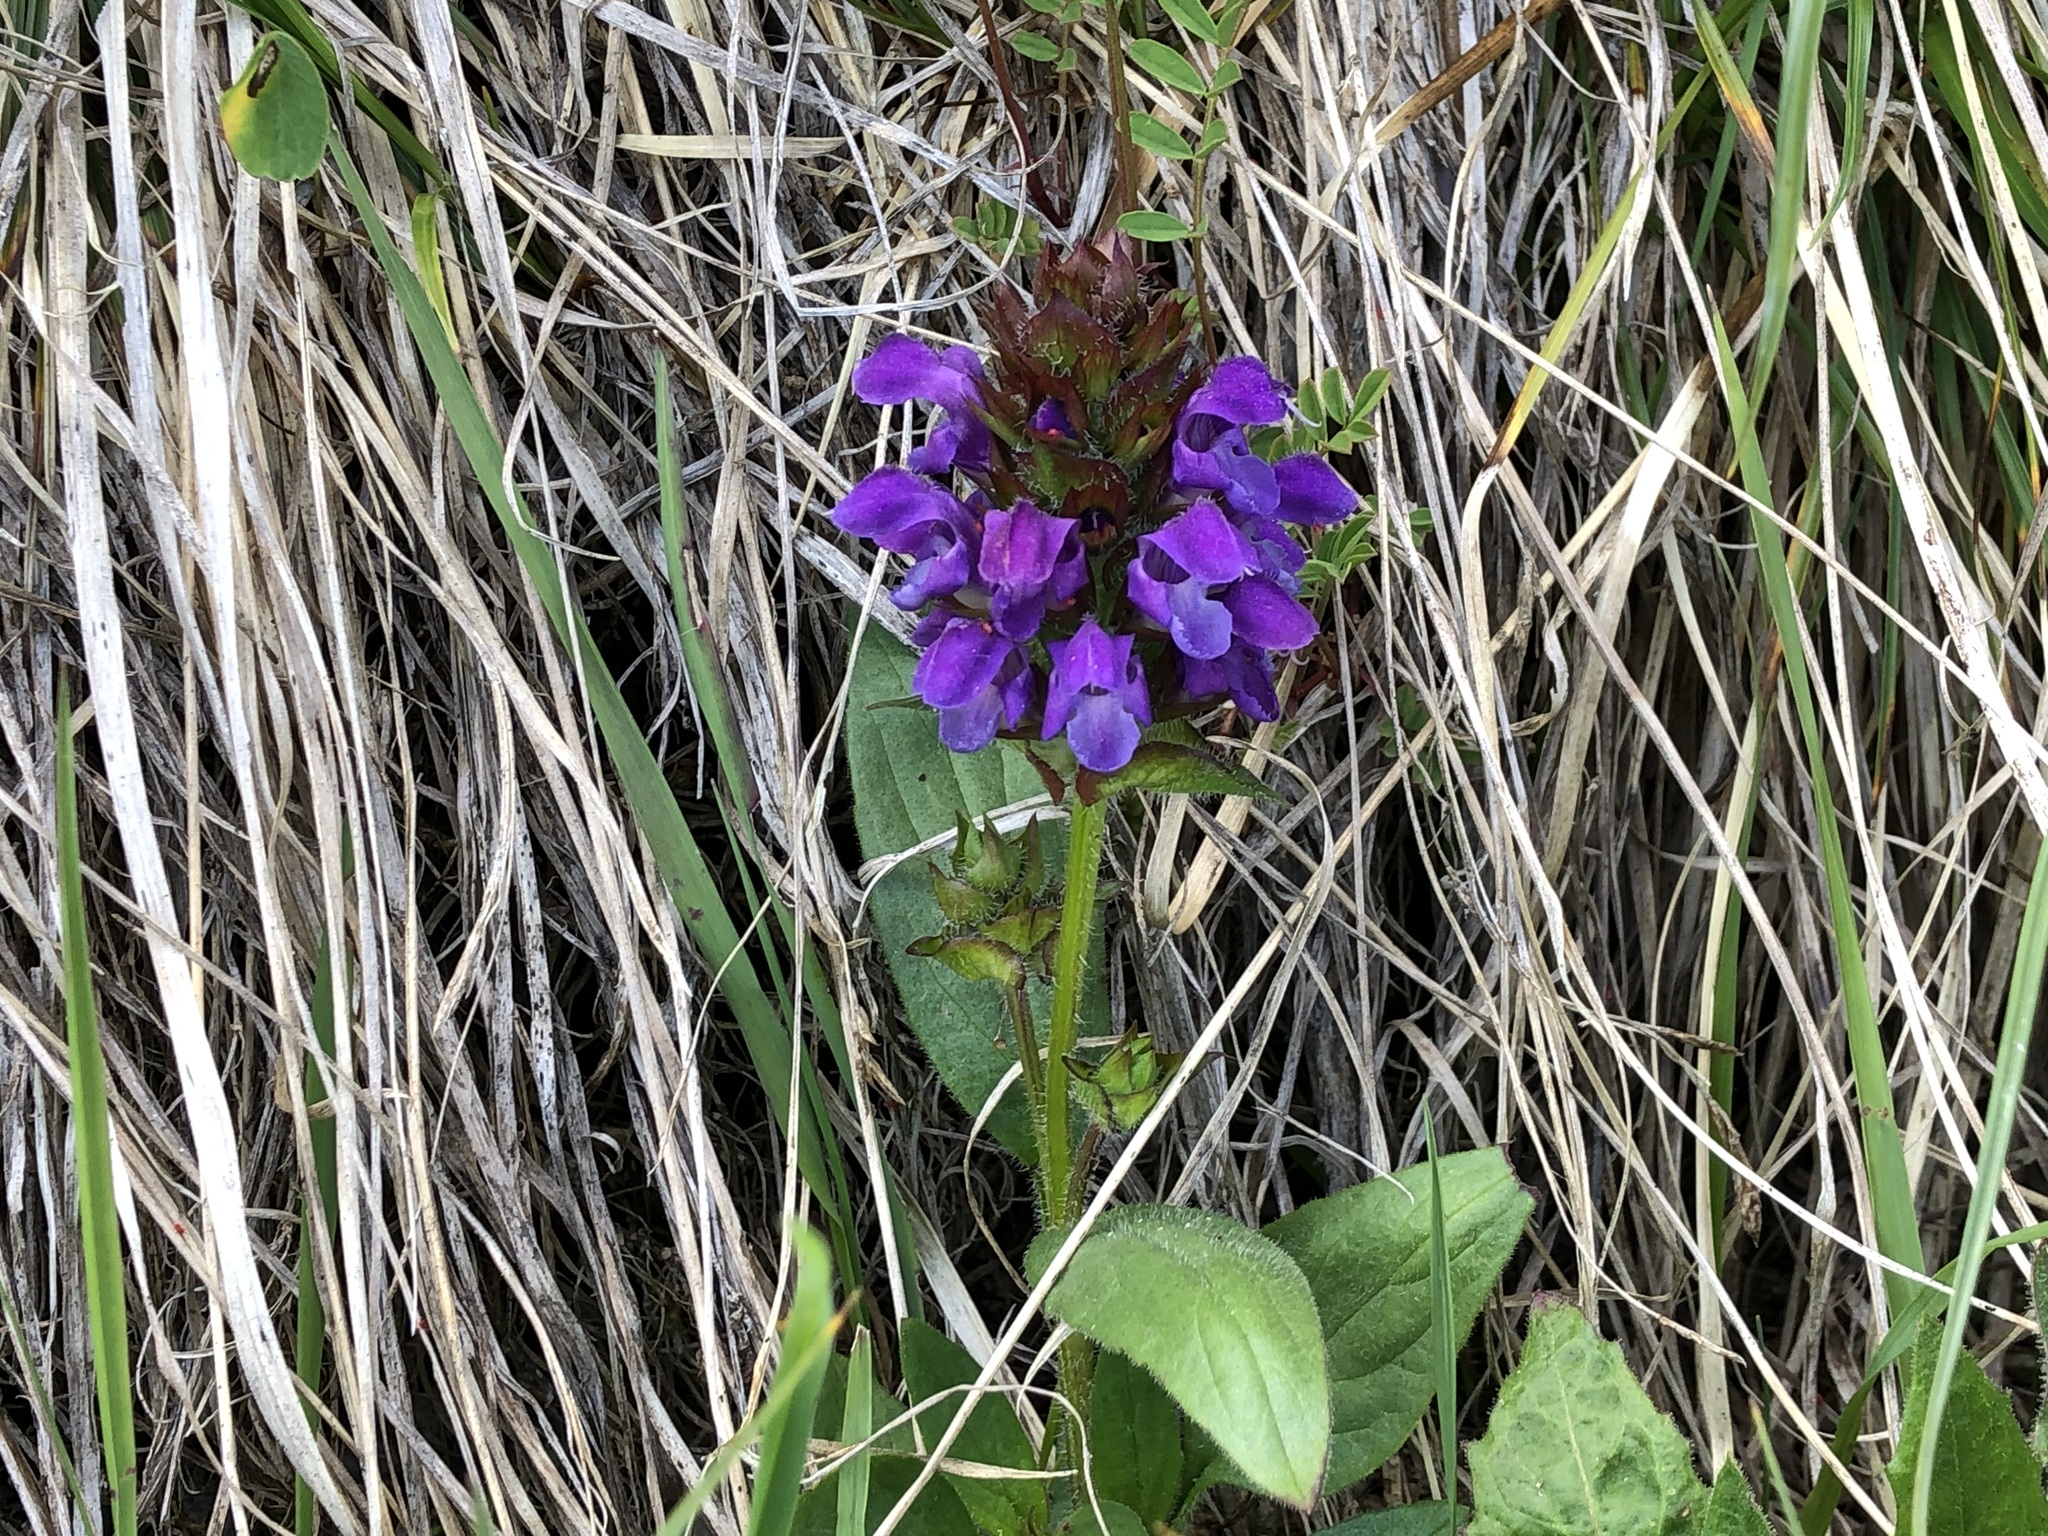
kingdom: Plantae
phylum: Tracheophyta
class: Magnoliopsida
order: Lamiales
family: Lamiaceae
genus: Prunella
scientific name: Prunella grandiflora
